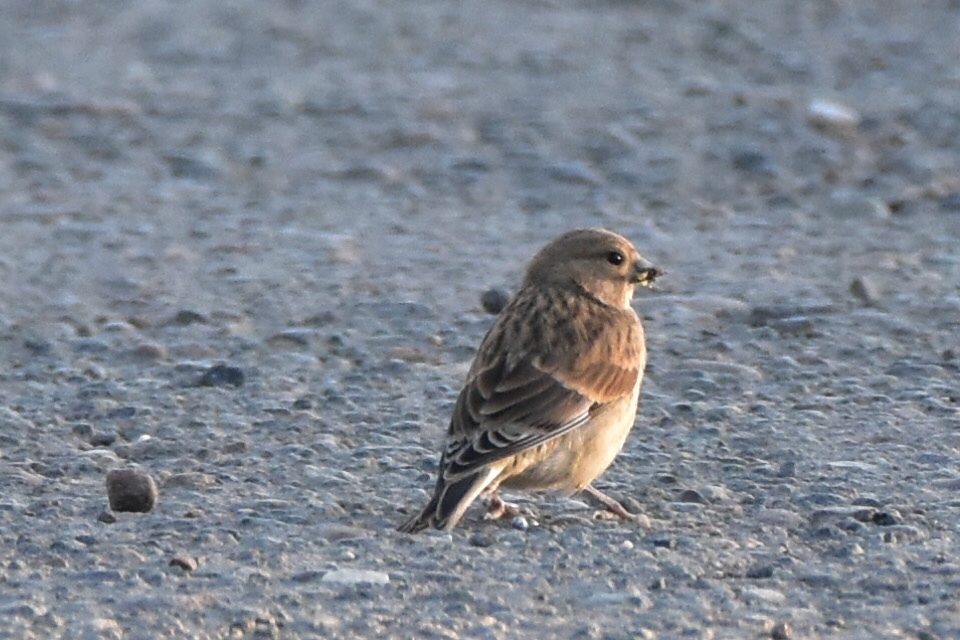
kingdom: Animalia
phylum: Chordata
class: Aves
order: Passeriformes
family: Fringillidae
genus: Linaria
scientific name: Linaria cannabina
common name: Common linnet
